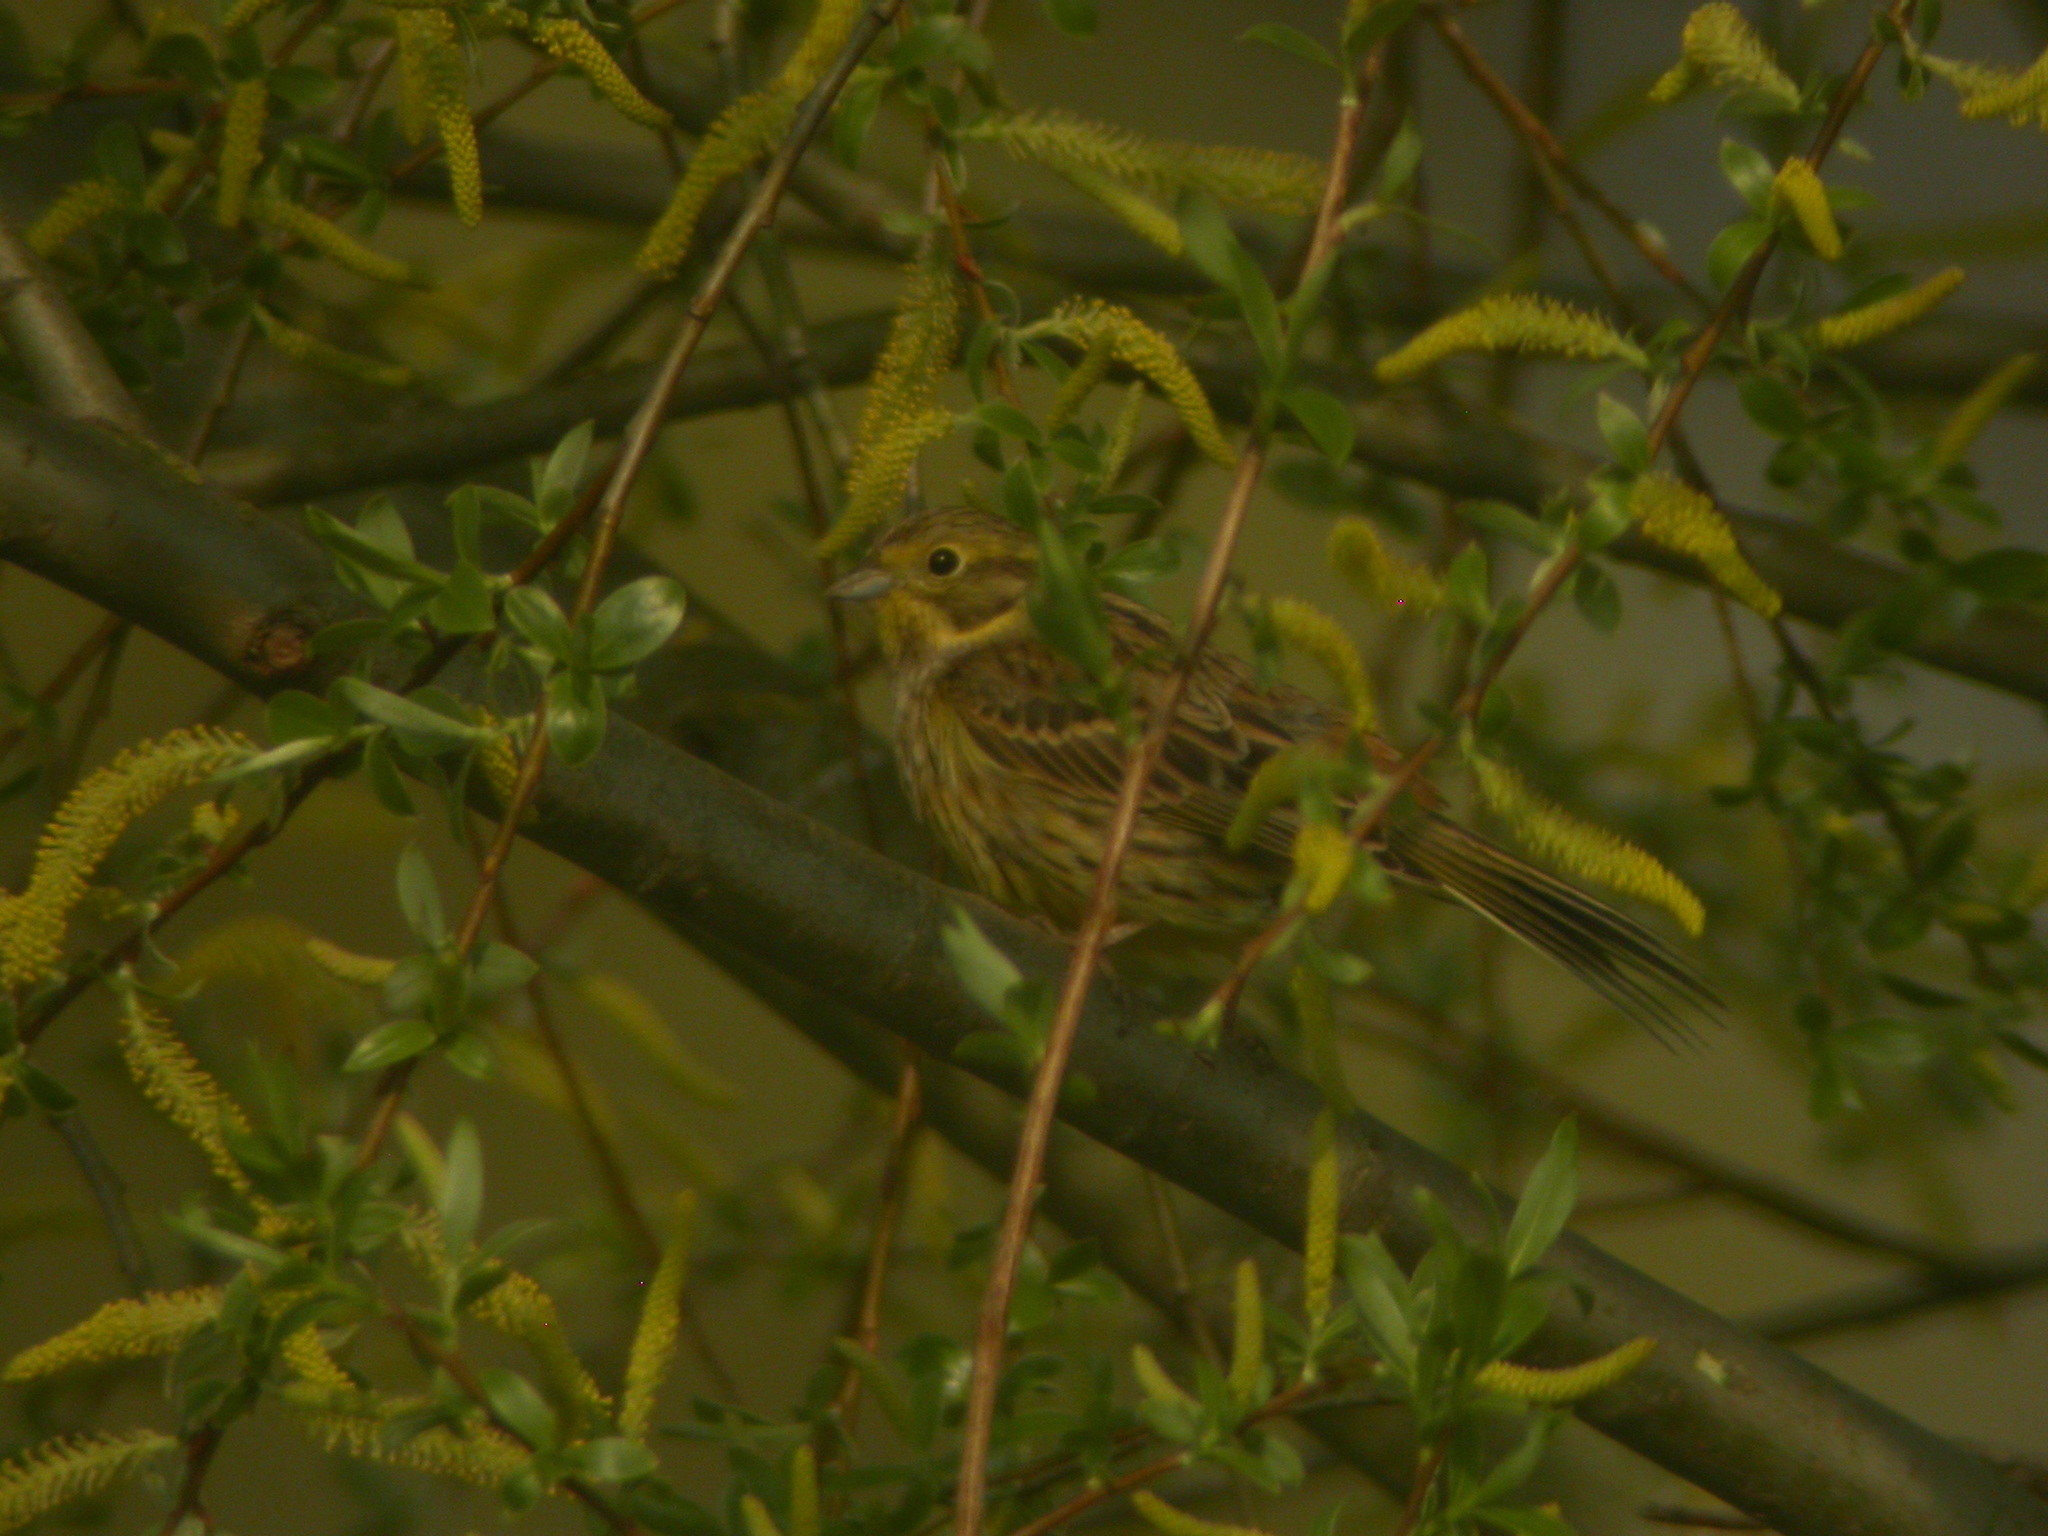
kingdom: Animalia
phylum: Chordata
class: Aves
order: Passeriformes
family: Emberizidae
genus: Emberiza
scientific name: Emberiza citrinella
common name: Yellowhammer
